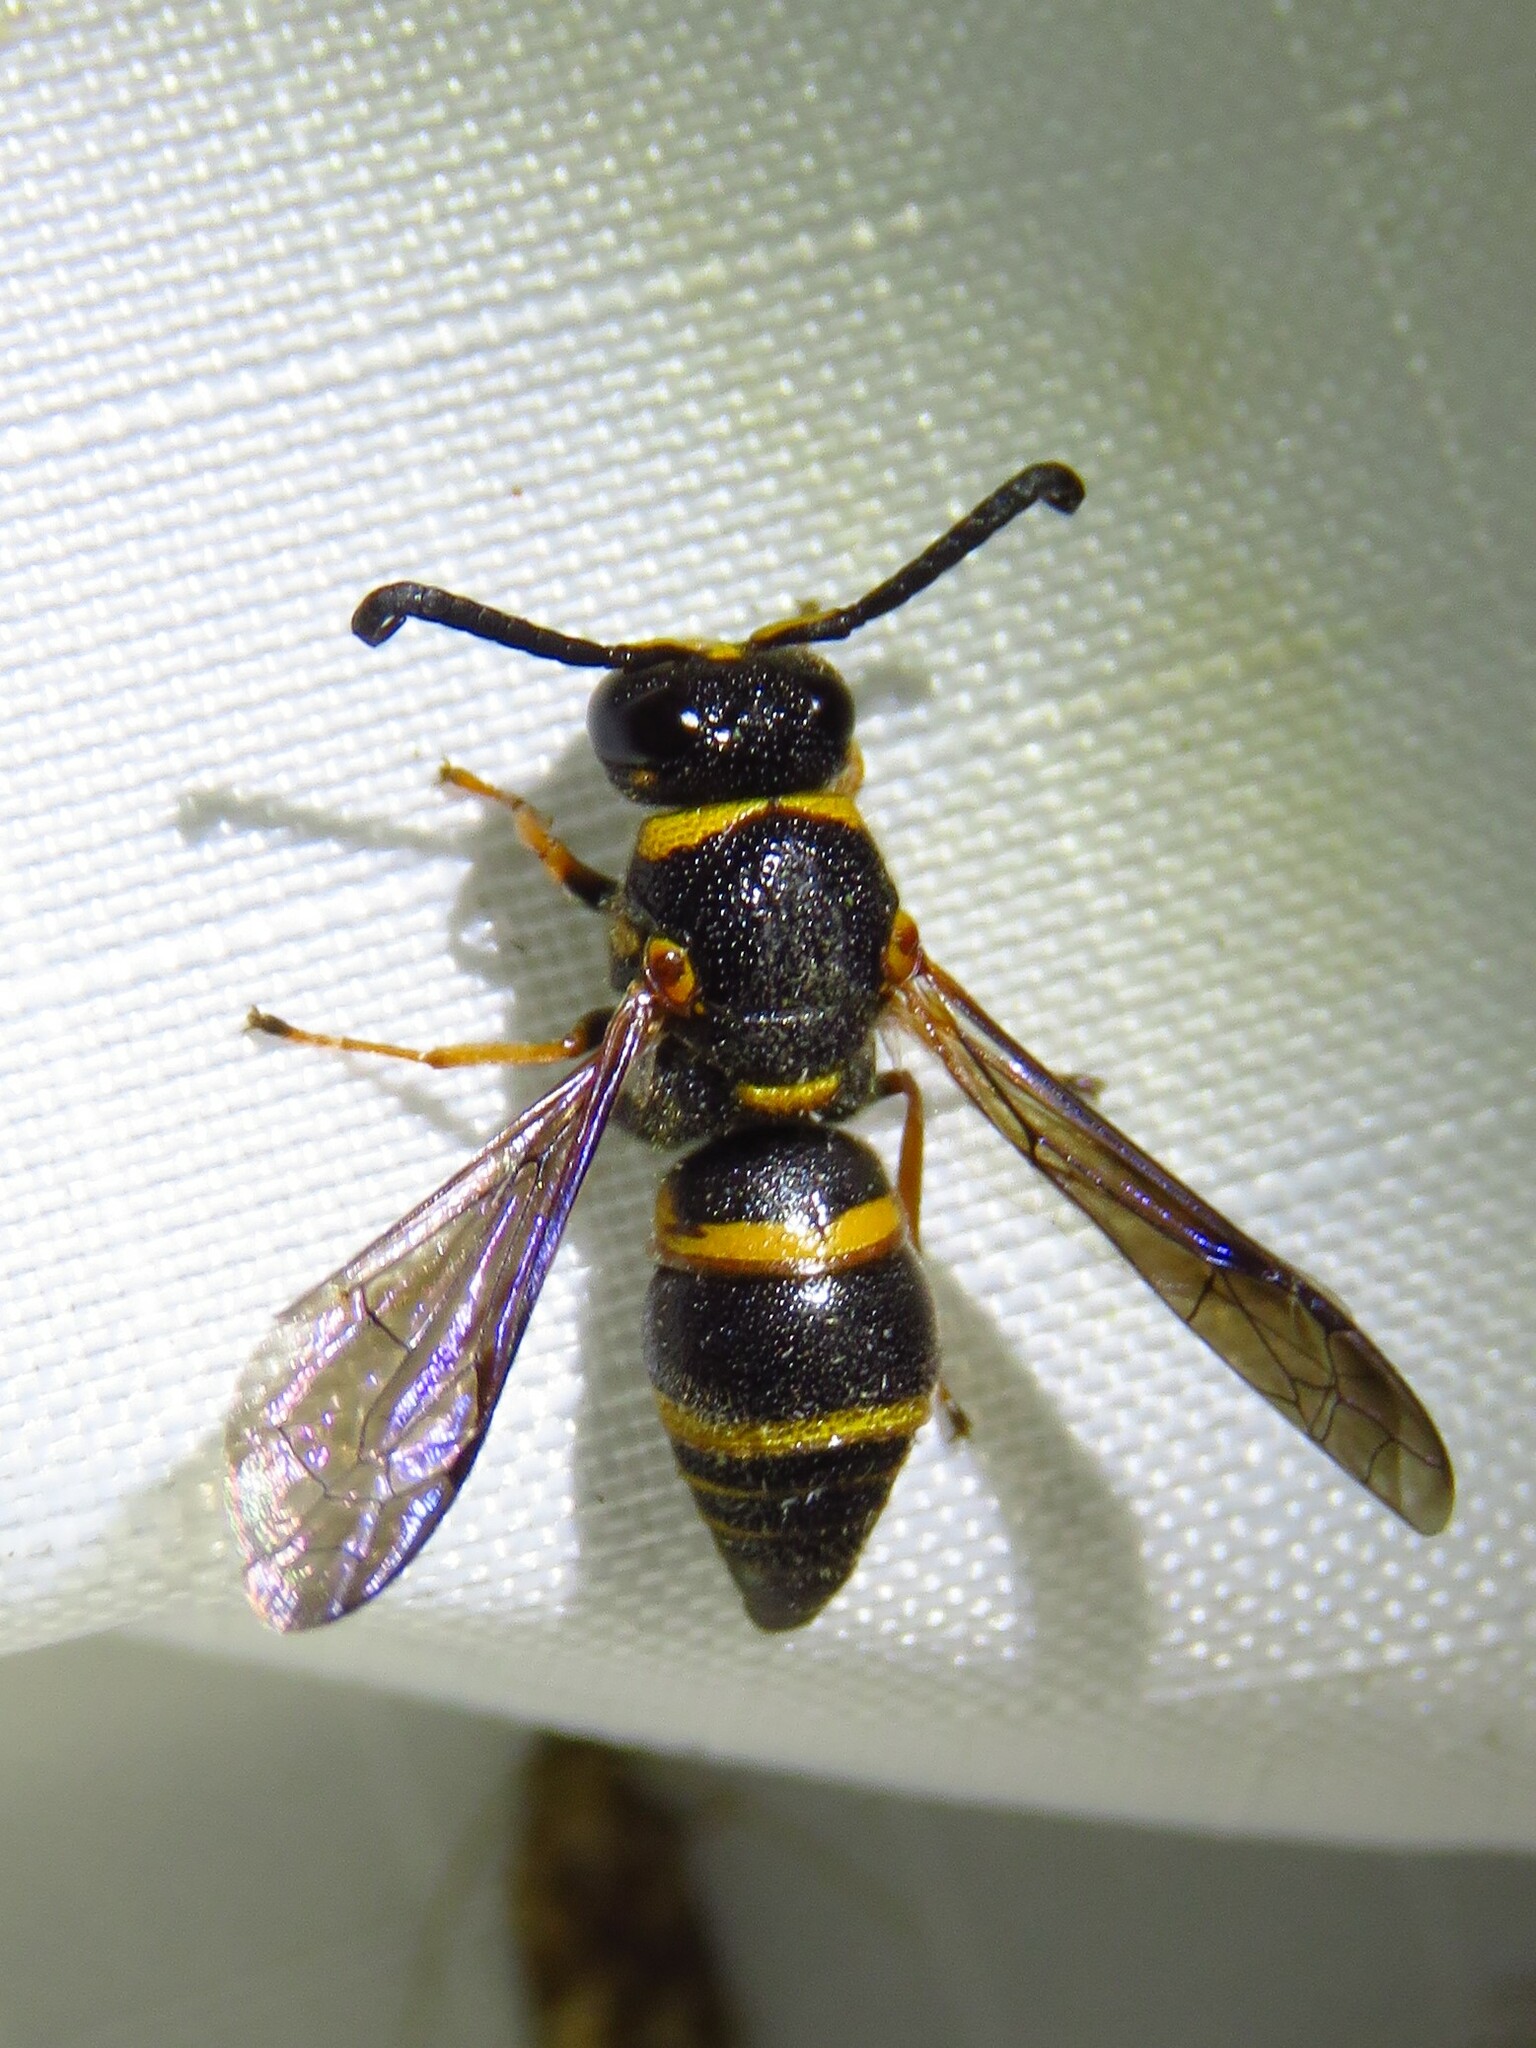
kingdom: Animalia
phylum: Arthropoda
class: Insecta
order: Hymenoptera
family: Eumenidae
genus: Euodynerus
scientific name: Euodynerus hidalgo
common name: Wasp
